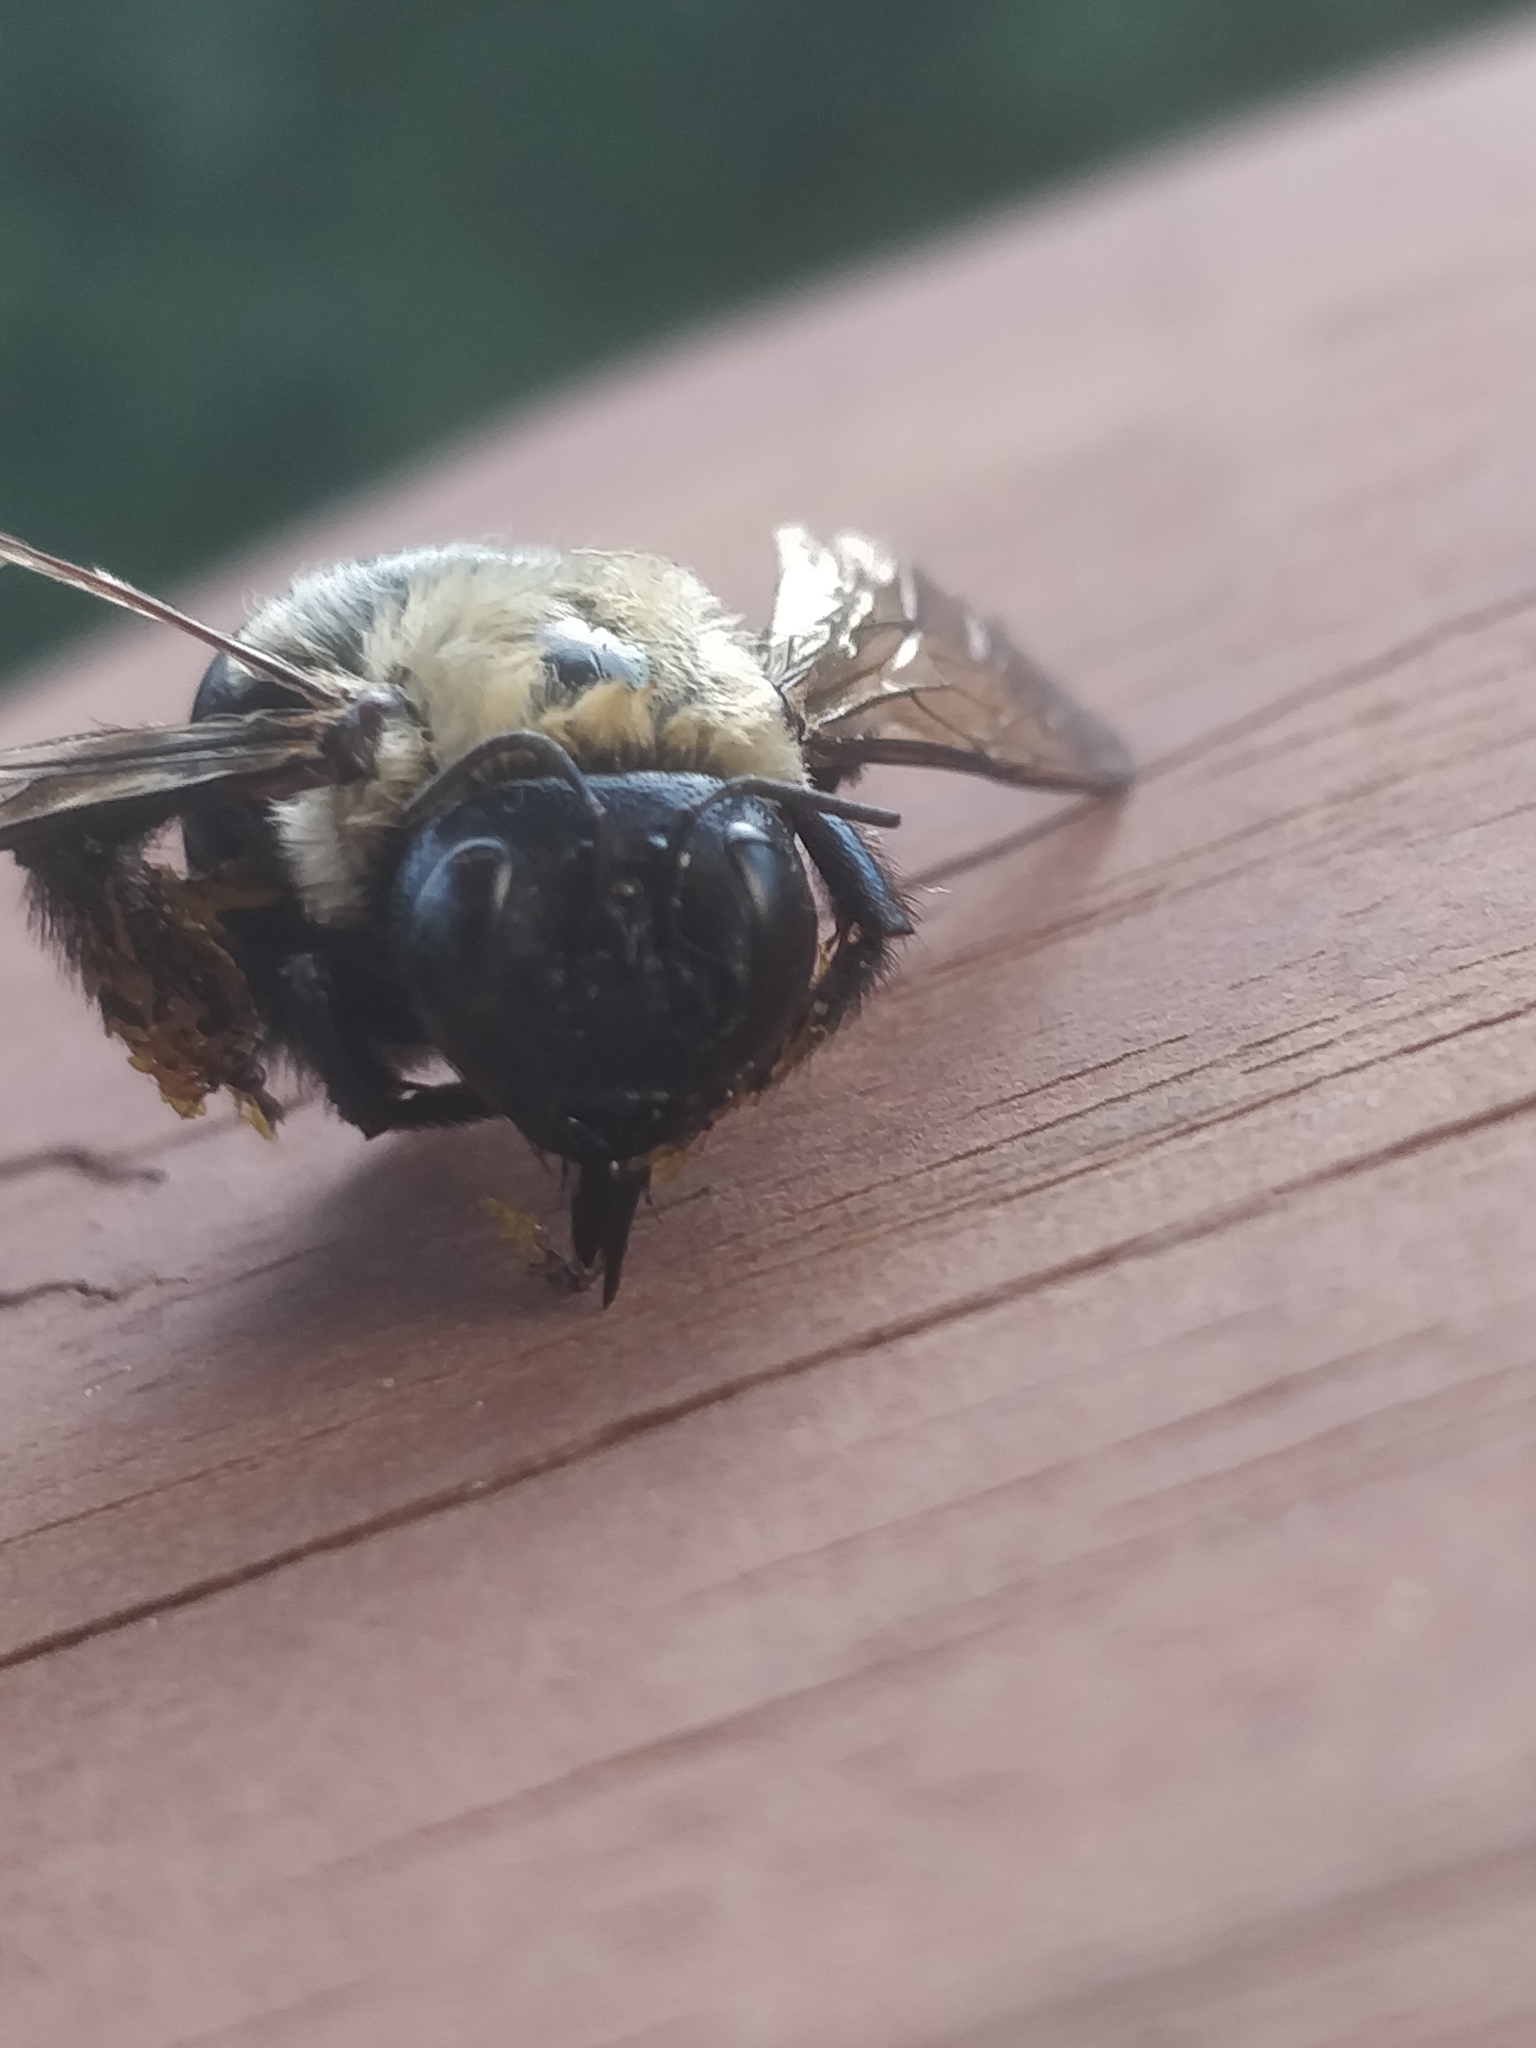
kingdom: Animalia
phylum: Arthropoda
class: Insecta
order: Hymenoptera
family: Apidae
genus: Xylocopa
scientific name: Xylocopa virginica
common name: Carpenter bee
